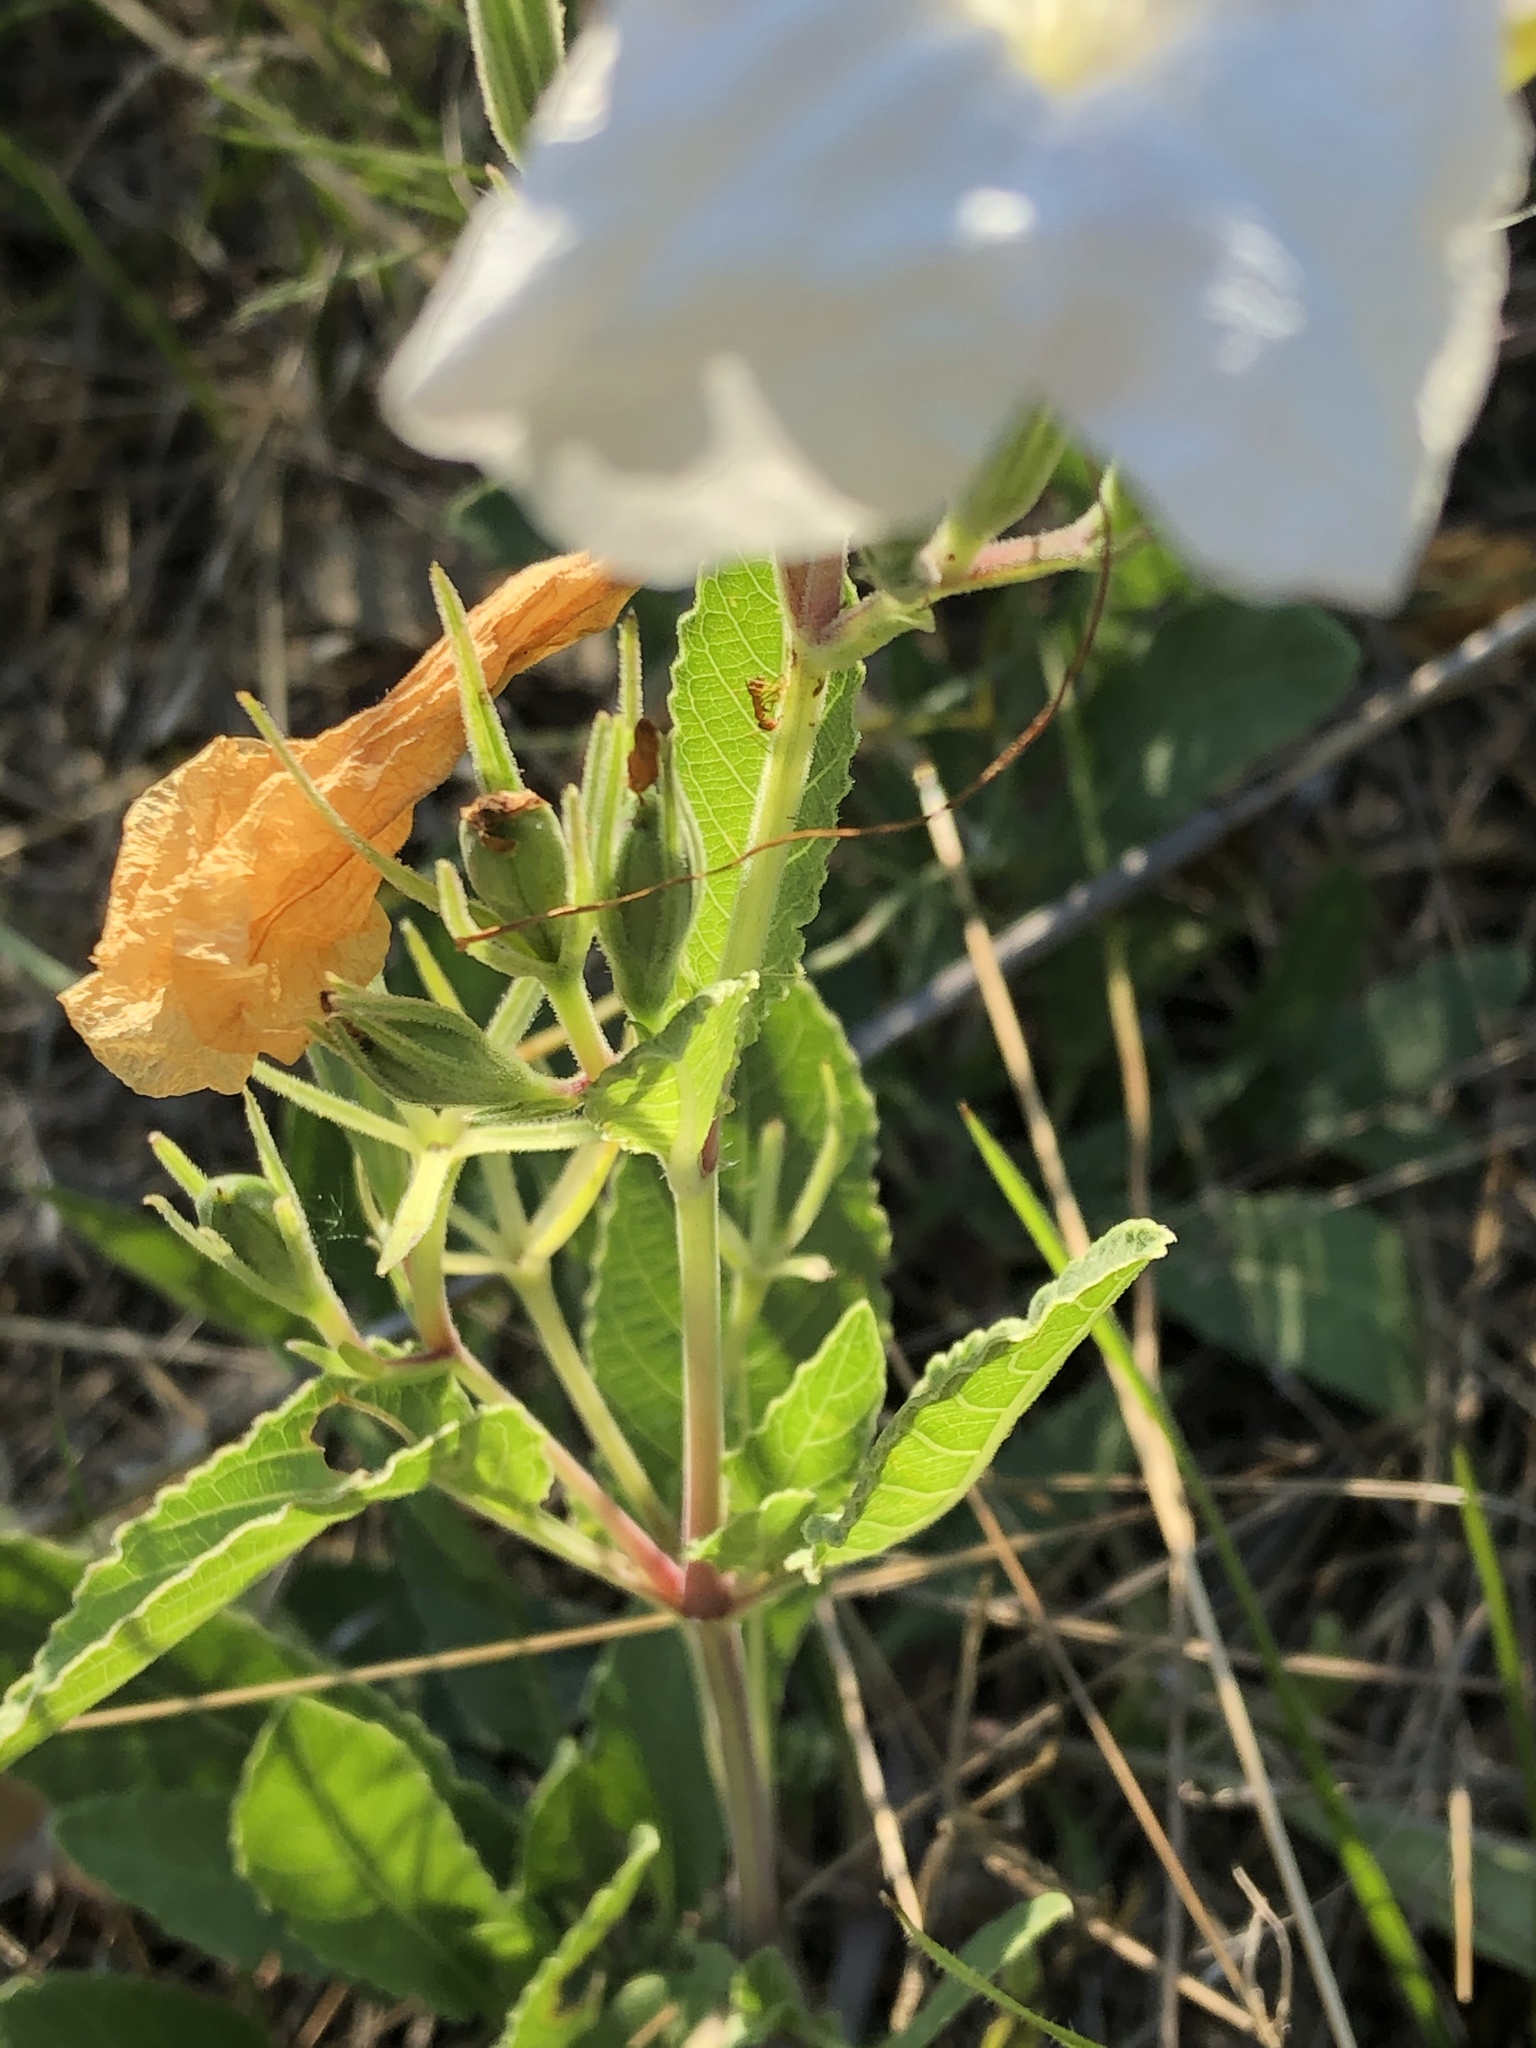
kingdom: Plantae
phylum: Tracheophyta
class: Magnoliopsida
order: Lamiales
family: Acanthaceae
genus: Ruellia
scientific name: Ruellia metziae
